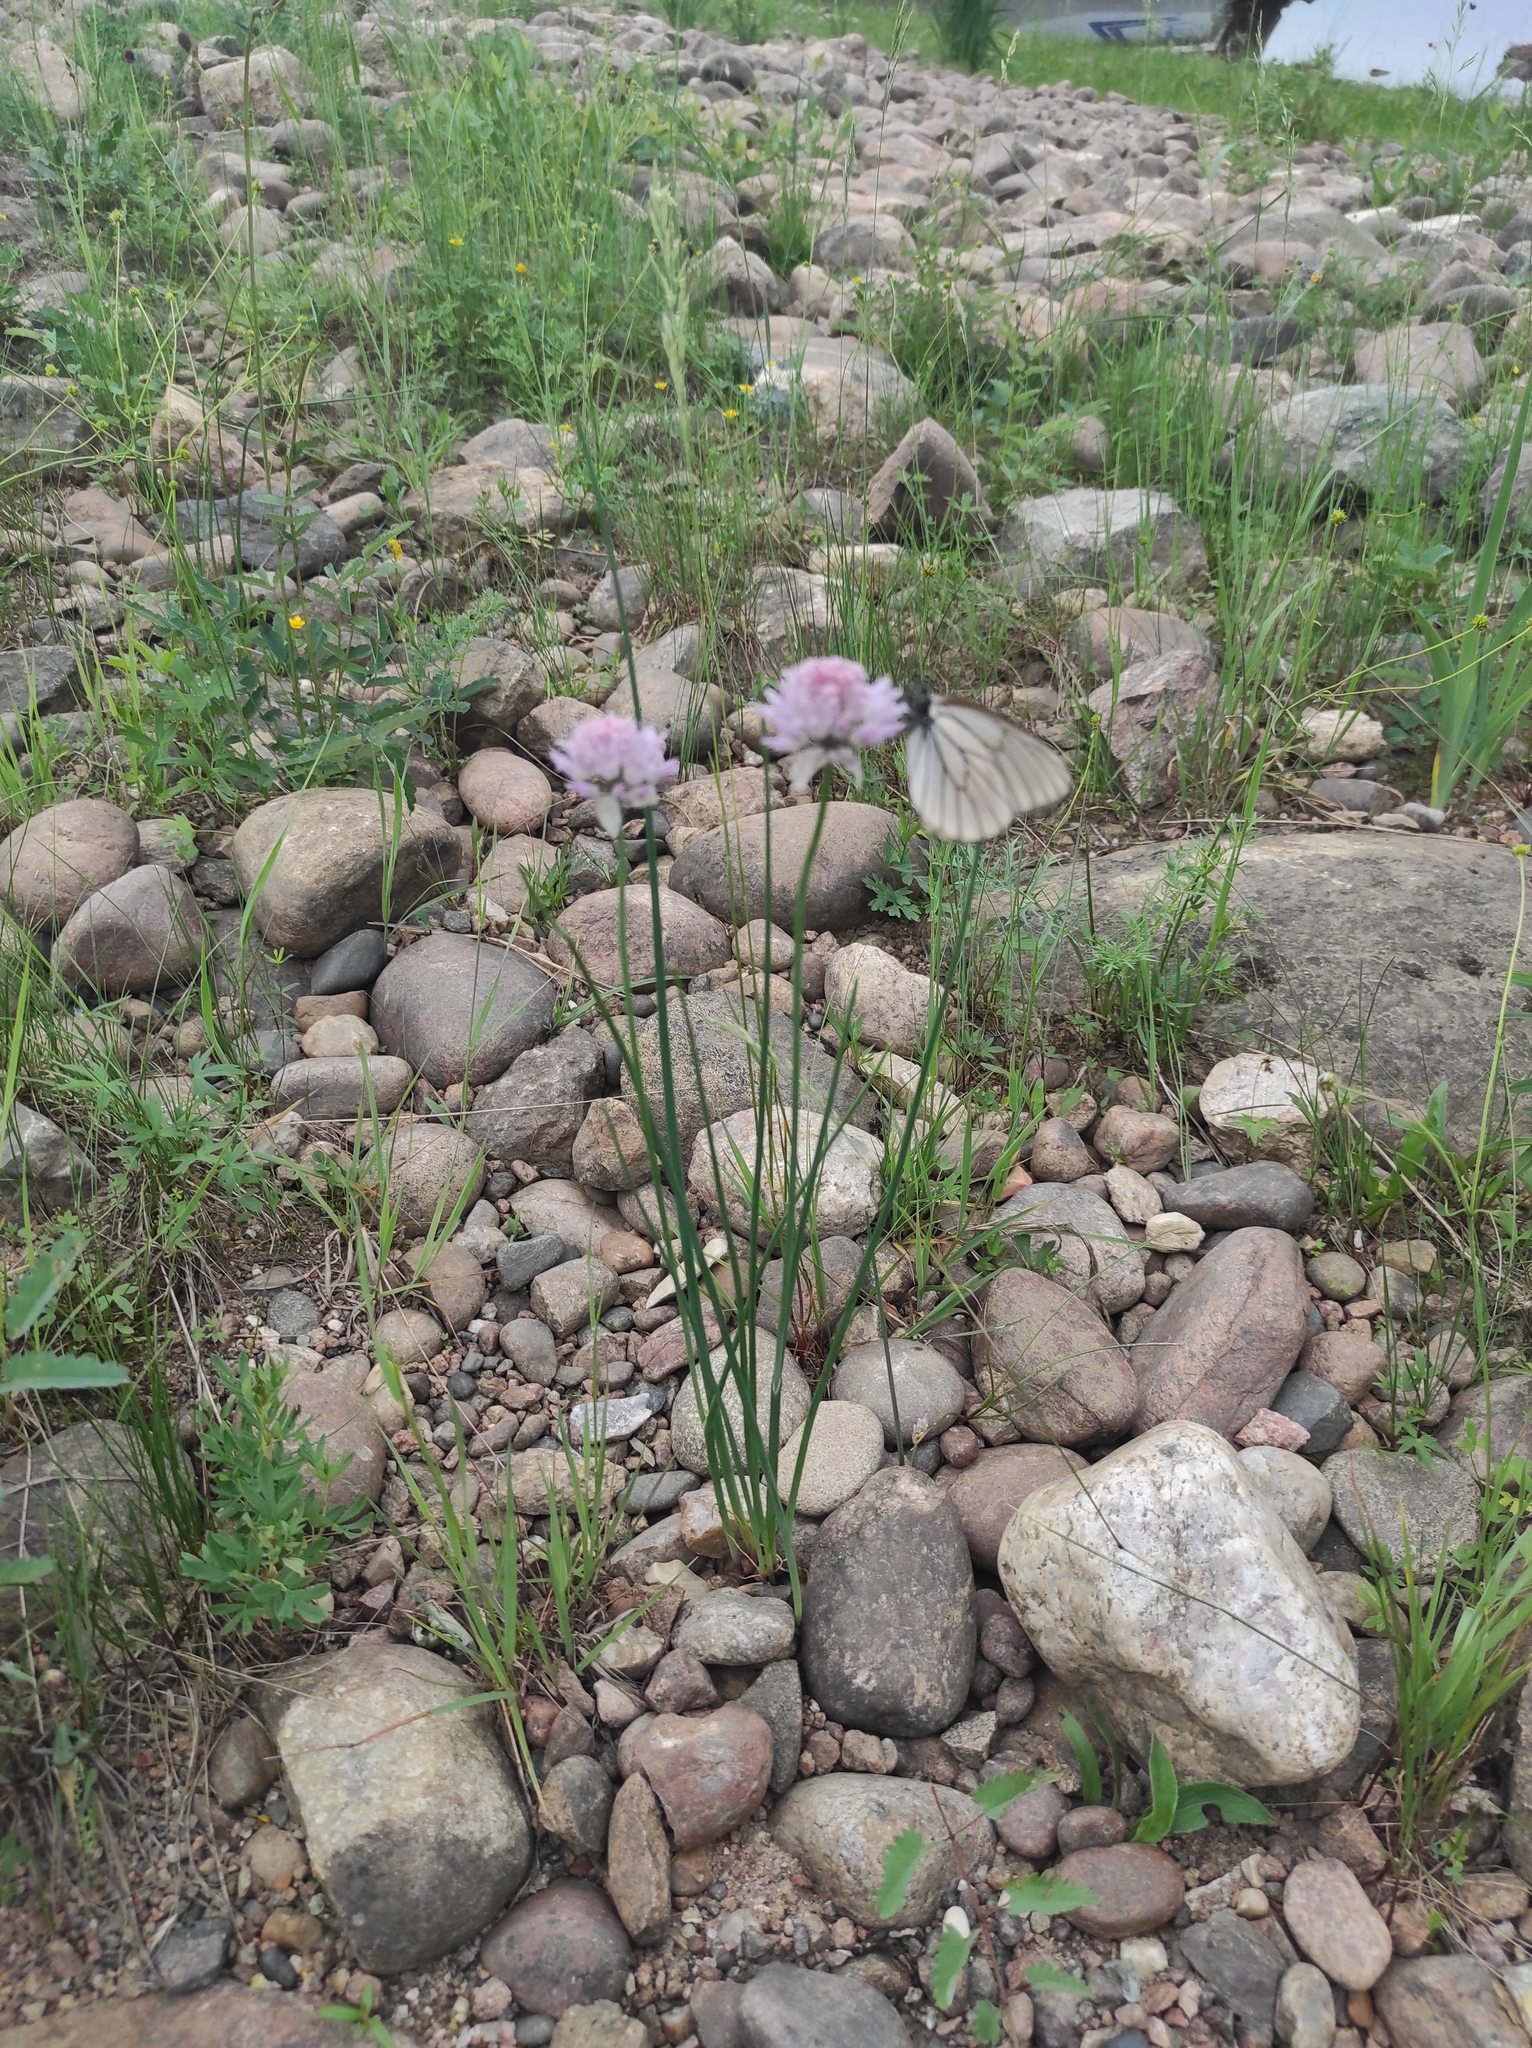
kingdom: Plantae
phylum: Tracheophyta
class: Liliopsida
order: Asparagales
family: Amaryllidaceae
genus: Allium
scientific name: Allium schoenoprasum
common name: Chives
